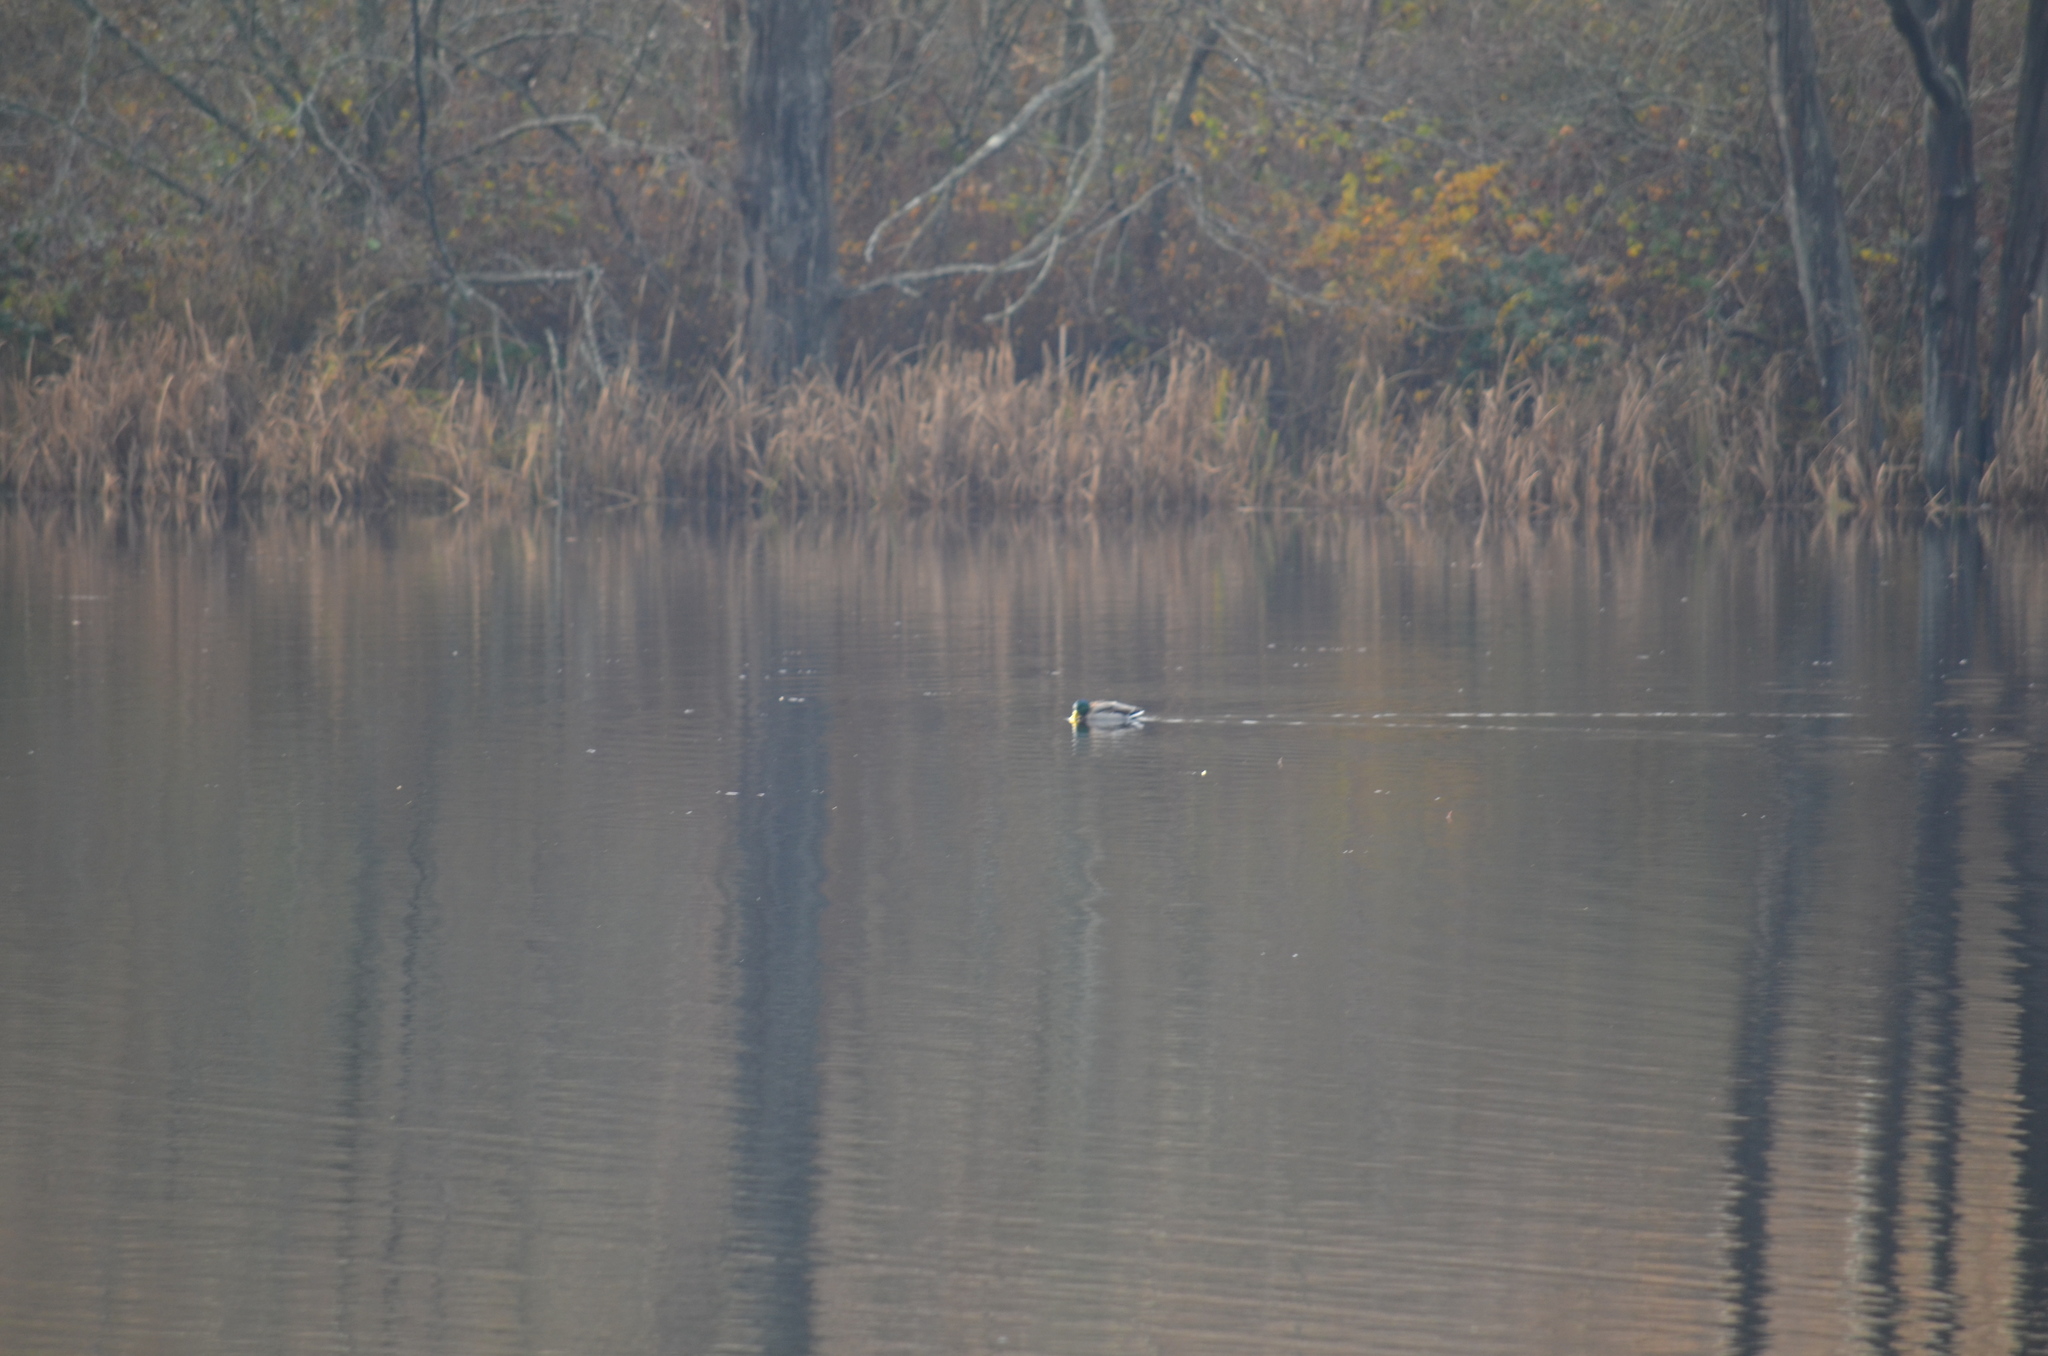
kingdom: Animalia
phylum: Chordata
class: Aves
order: Anseriformes
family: Anatidae
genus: Anas
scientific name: Anas platyrhynchos
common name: Mallard
